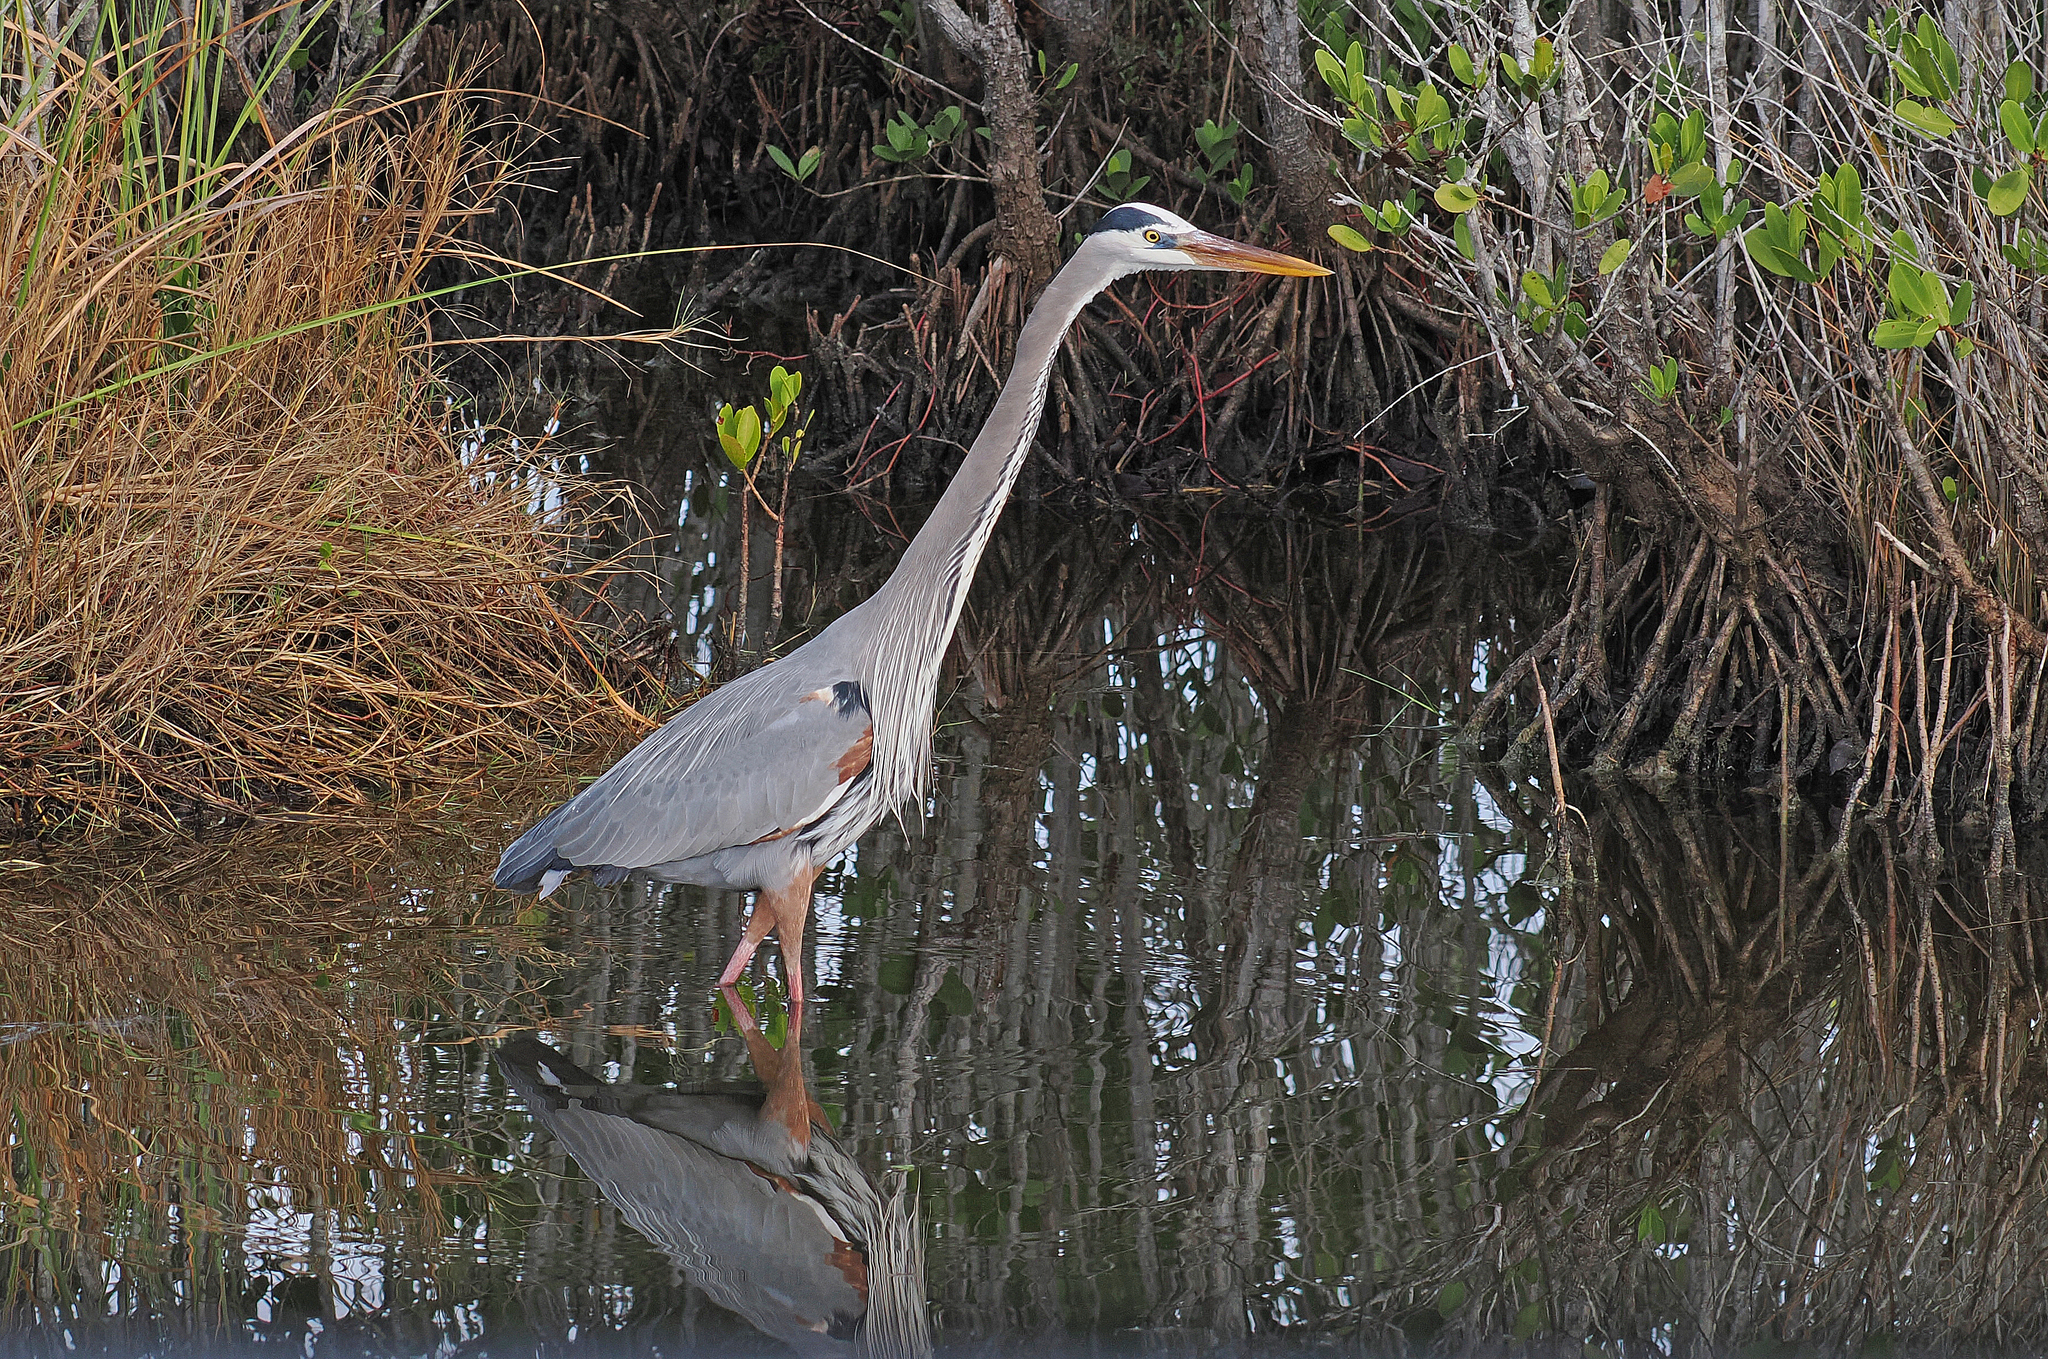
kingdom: Animalia
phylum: Chordata
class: Aves
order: Pelecaniformes
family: Ardeidae
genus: Ardea
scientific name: Ardea herodias
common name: Great blue heron
